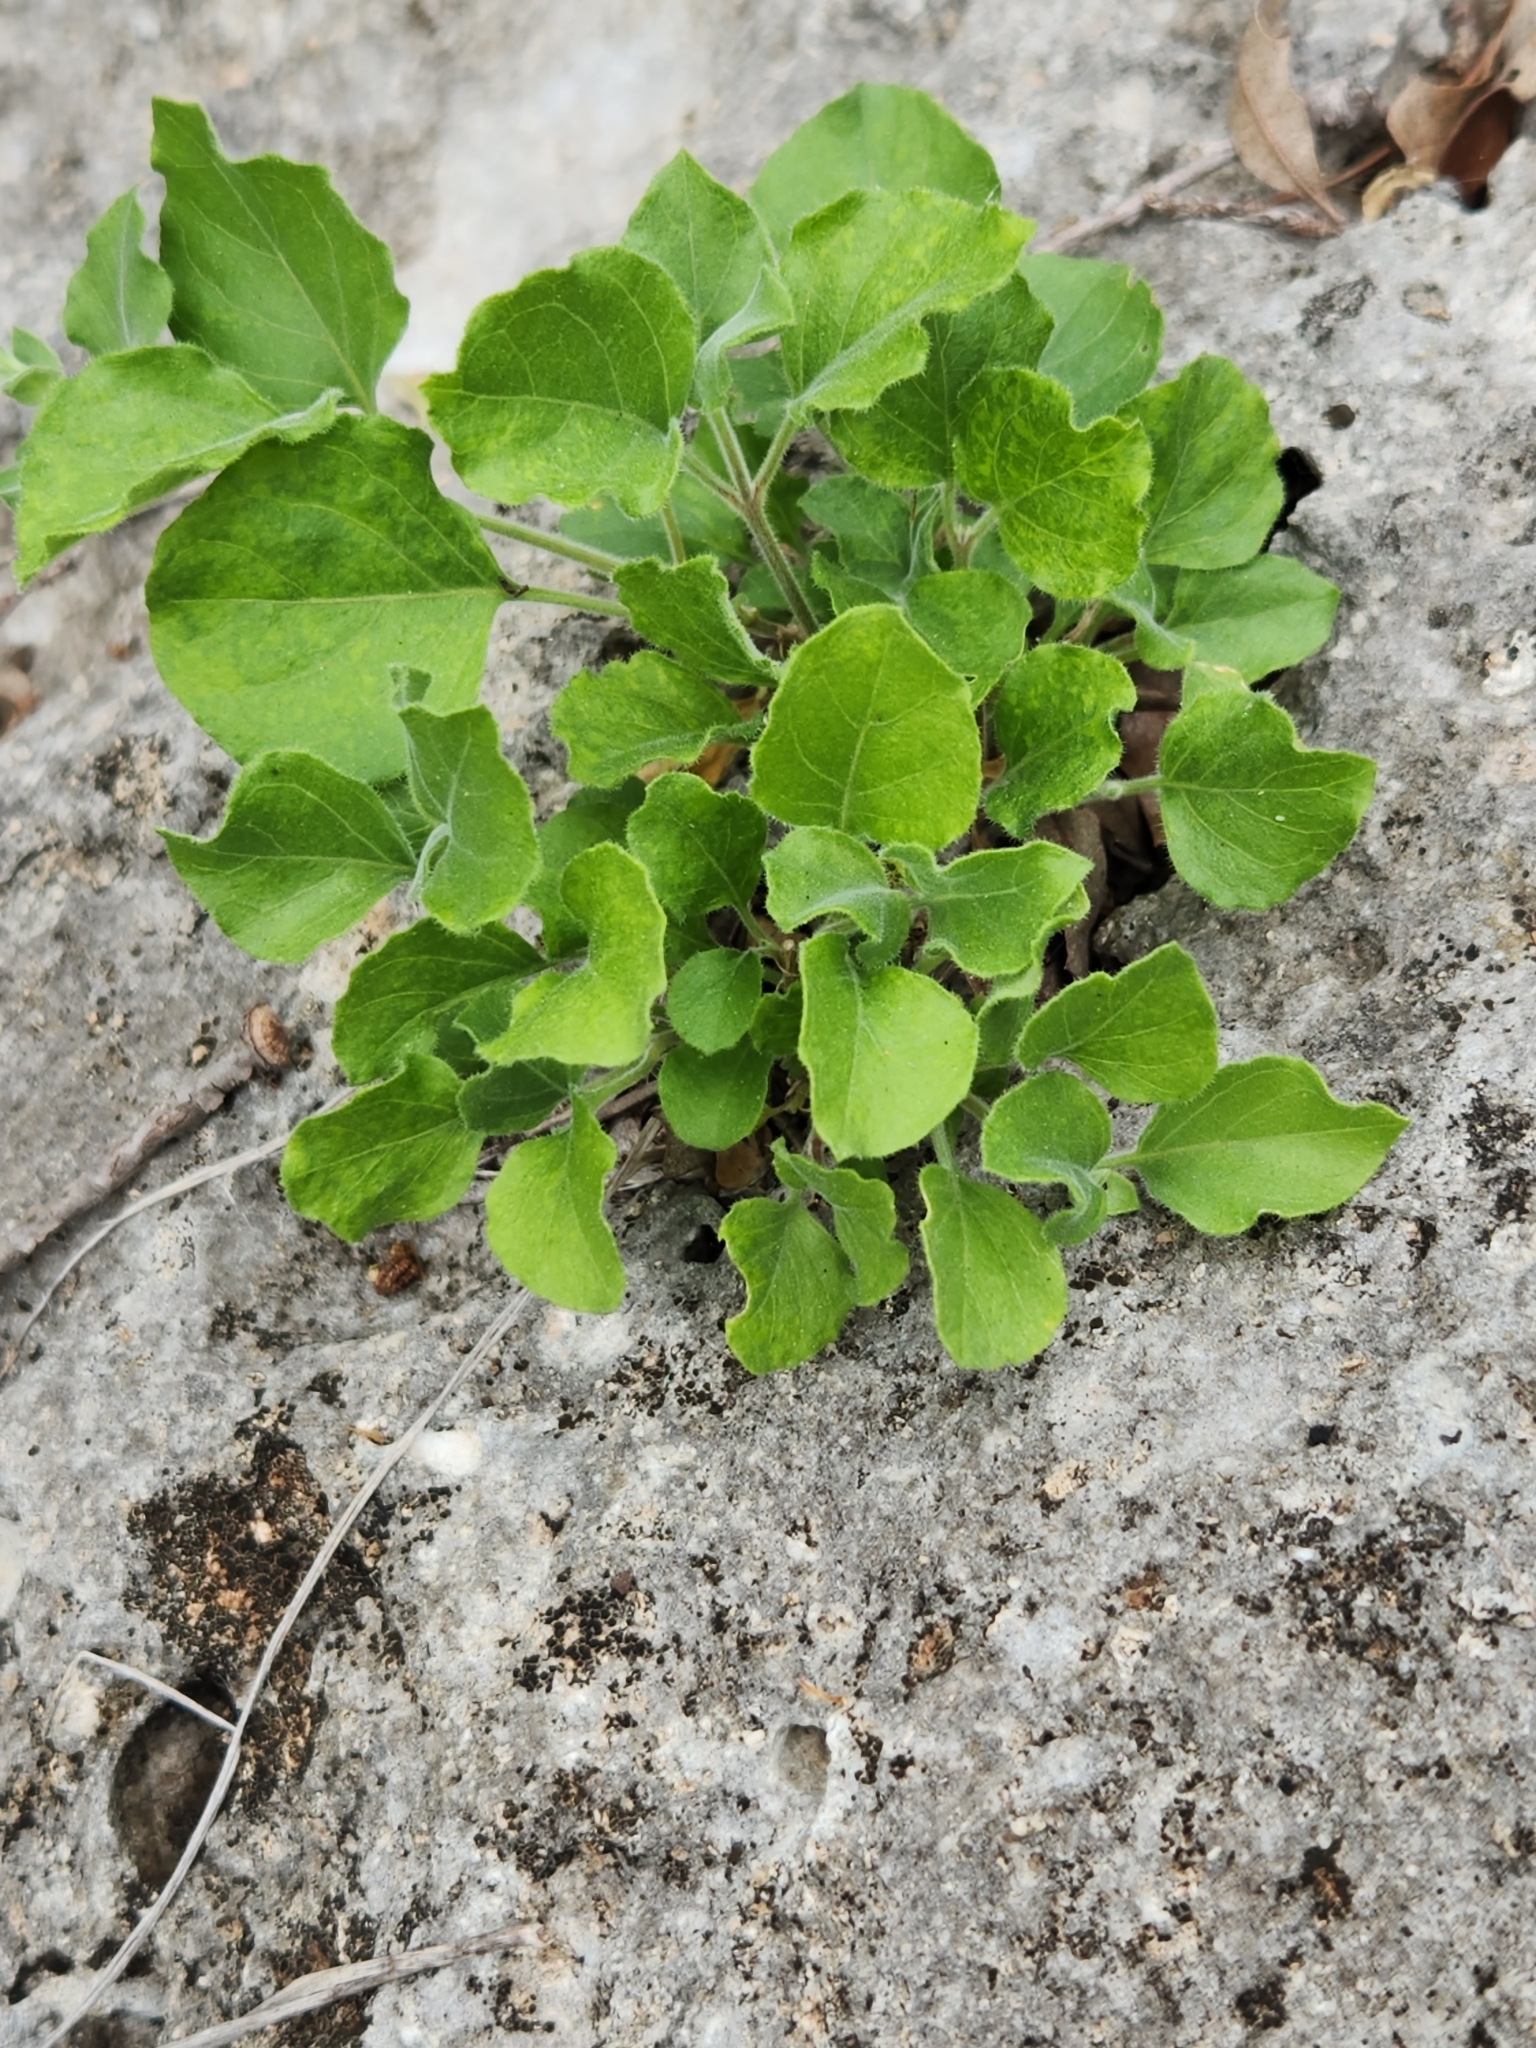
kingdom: Plantae
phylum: Tracheophyta
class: Magnoliopsida
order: Lamiales
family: Acanthaceae
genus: Carlowrightia
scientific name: Carlowrightia torreyana
